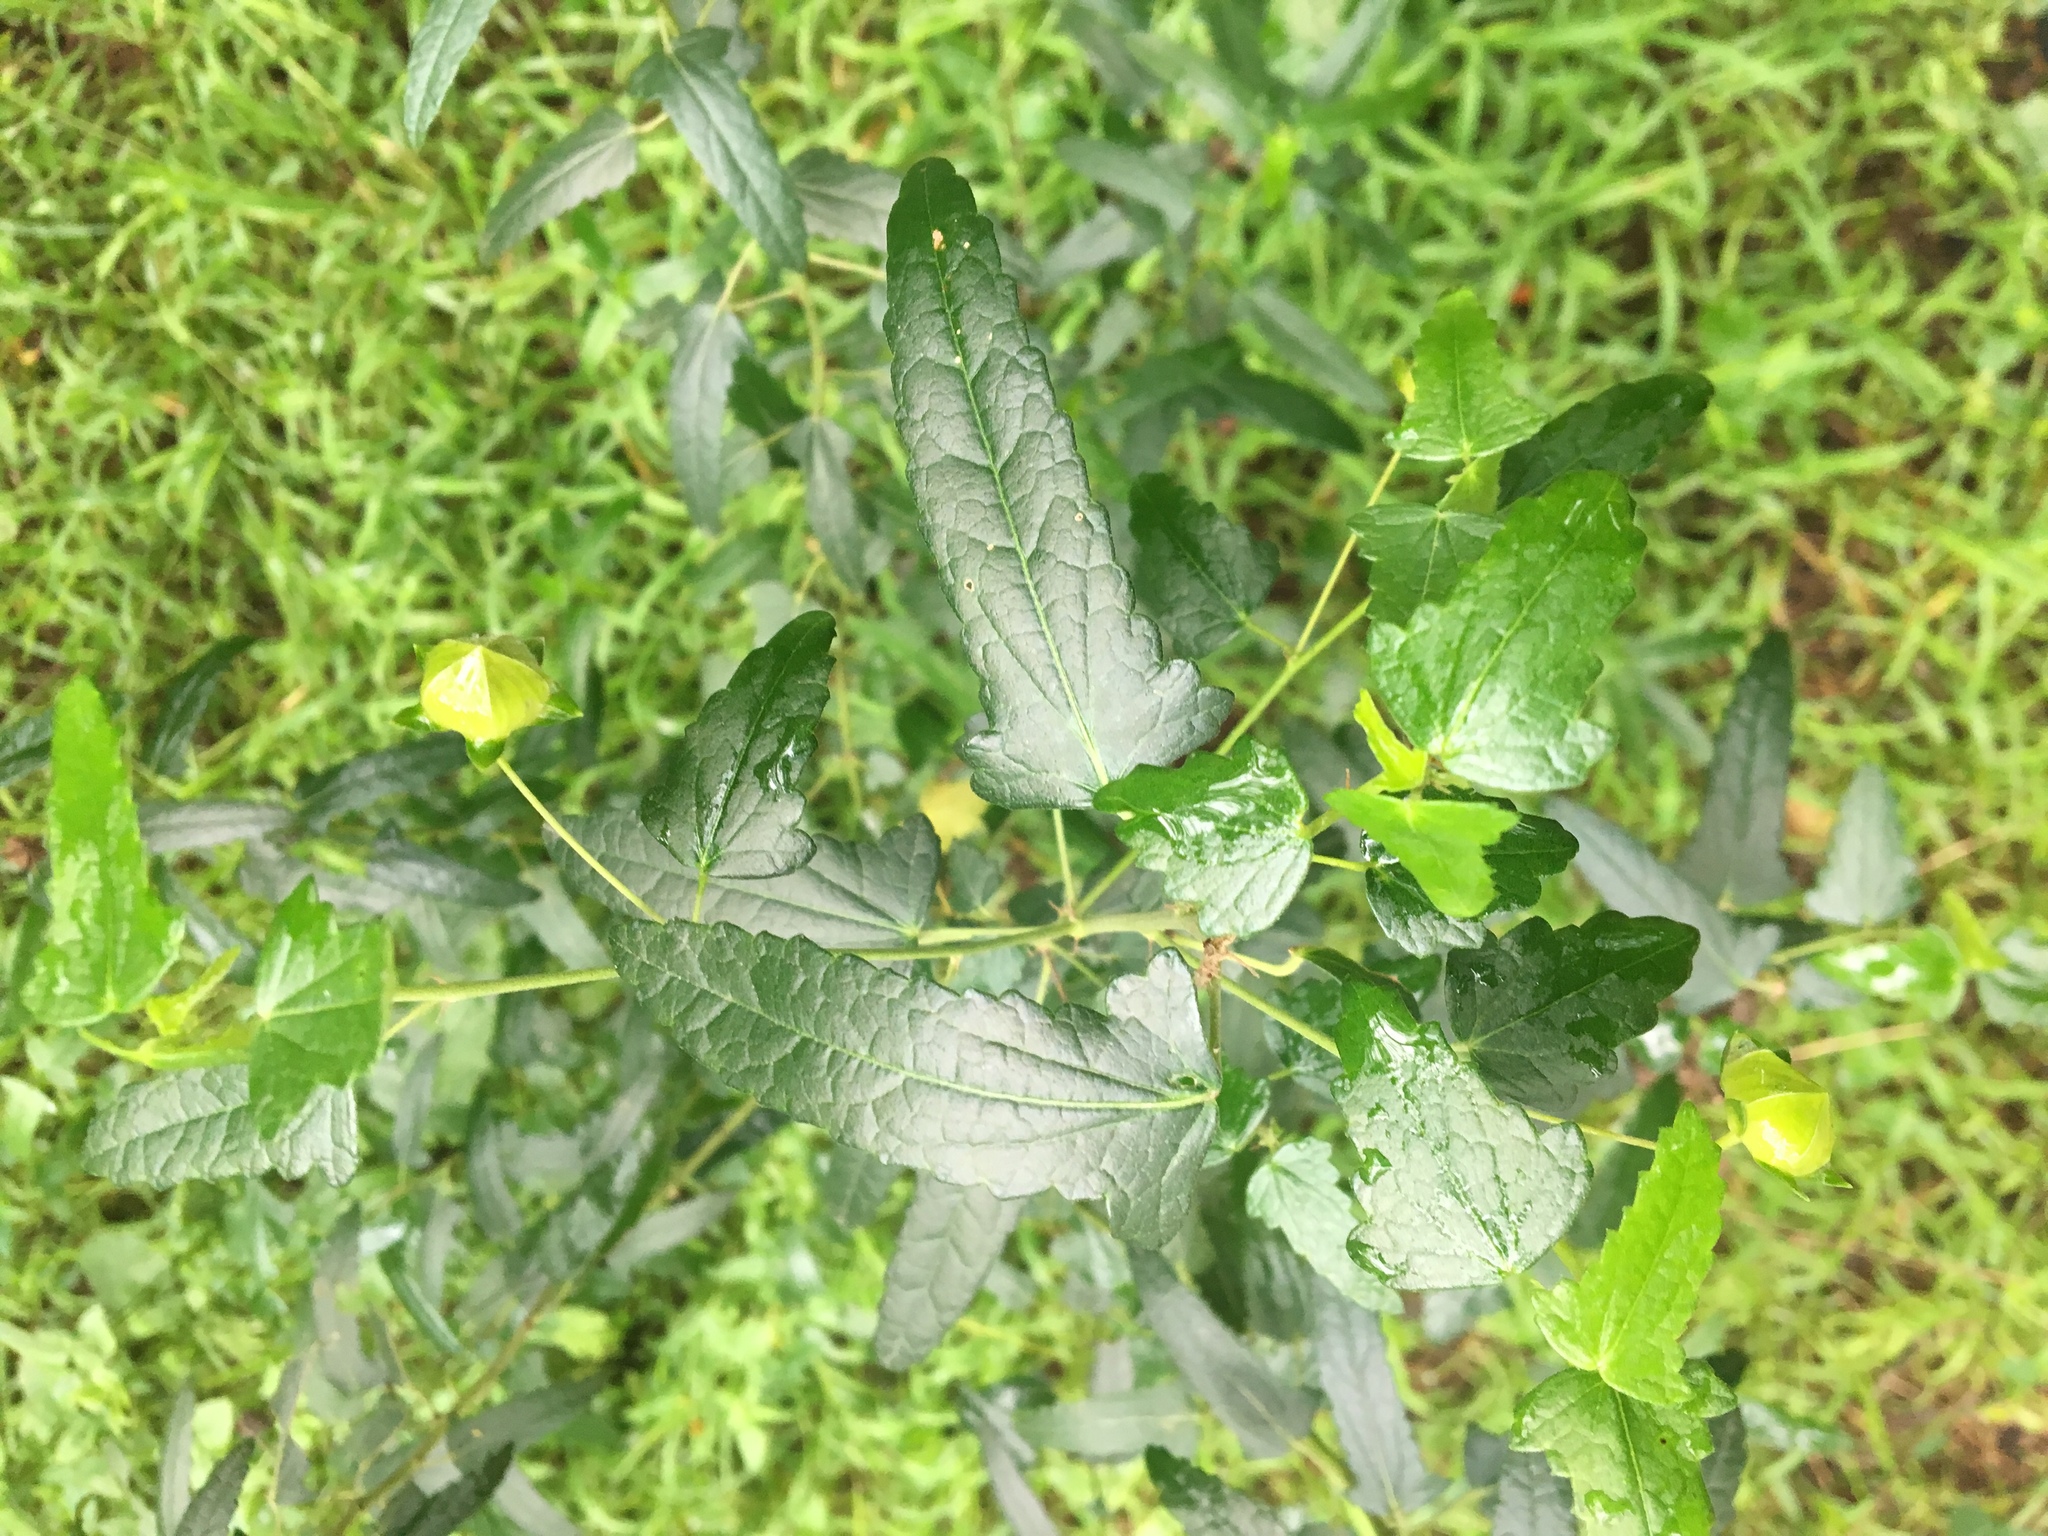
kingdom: Plantae
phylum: Tracheophyta
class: Magnoliopsida
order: Malvales
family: Malvaceae
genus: Pavonia
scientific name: Pavonia hastata
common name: Spearleaf swampmallow
